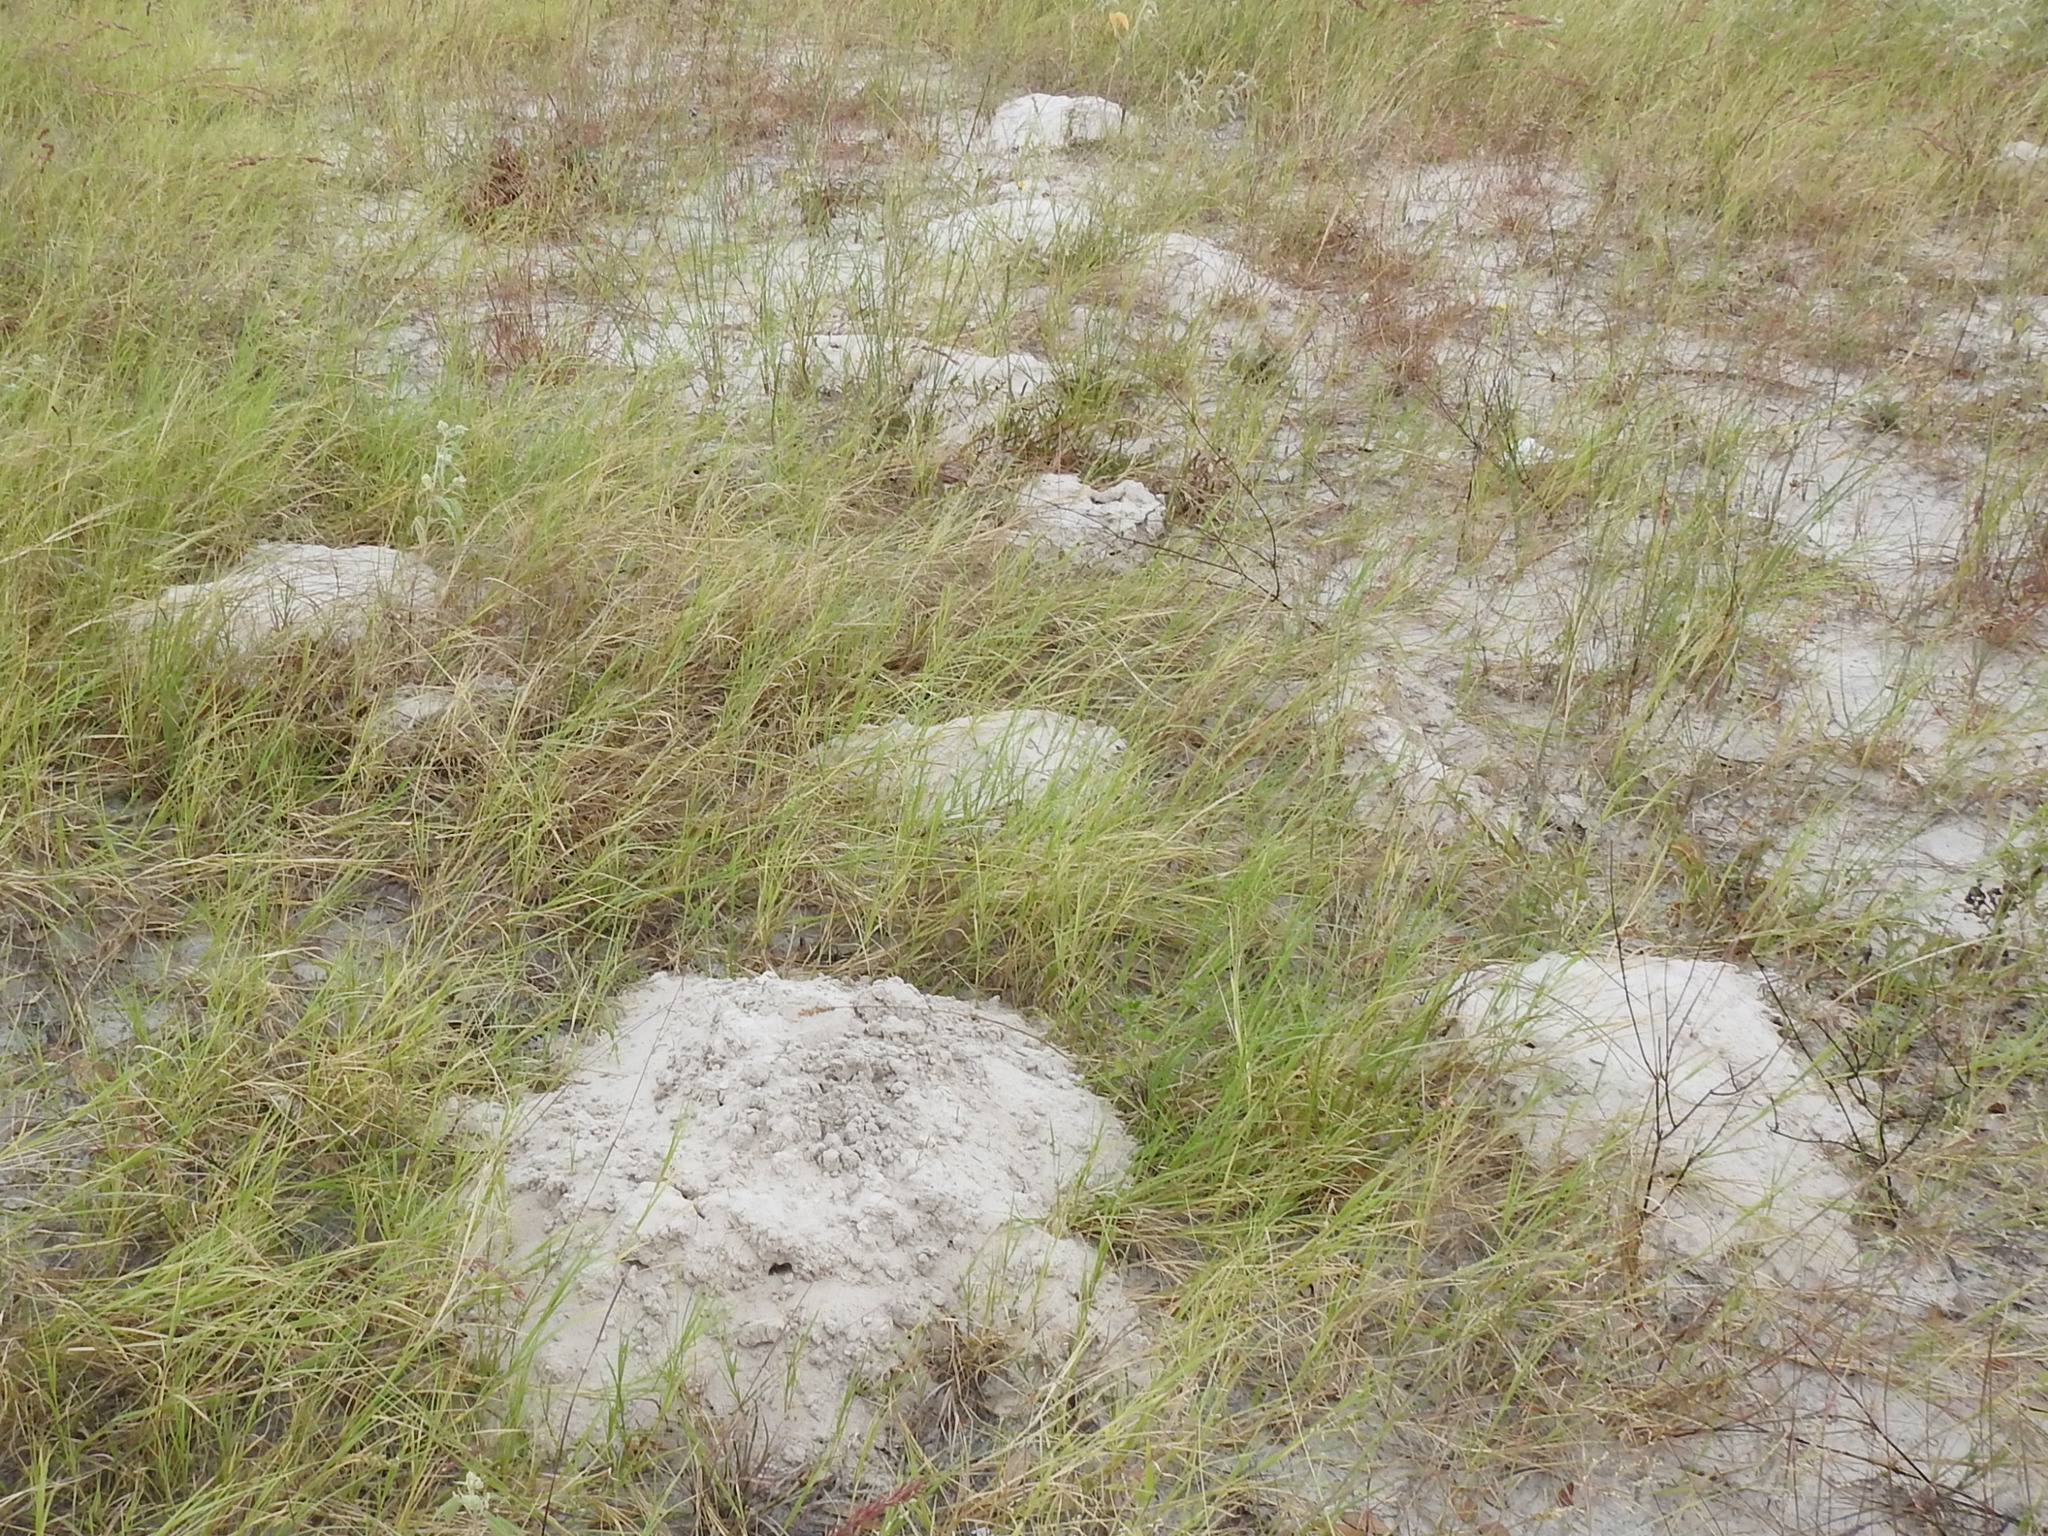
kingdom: Animalia
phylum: Chordata
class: Mammalia
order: Rodentia
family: Geomyidae
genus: Geomys
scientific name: Geomys attwateri
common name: Attwater's pocket gopher
